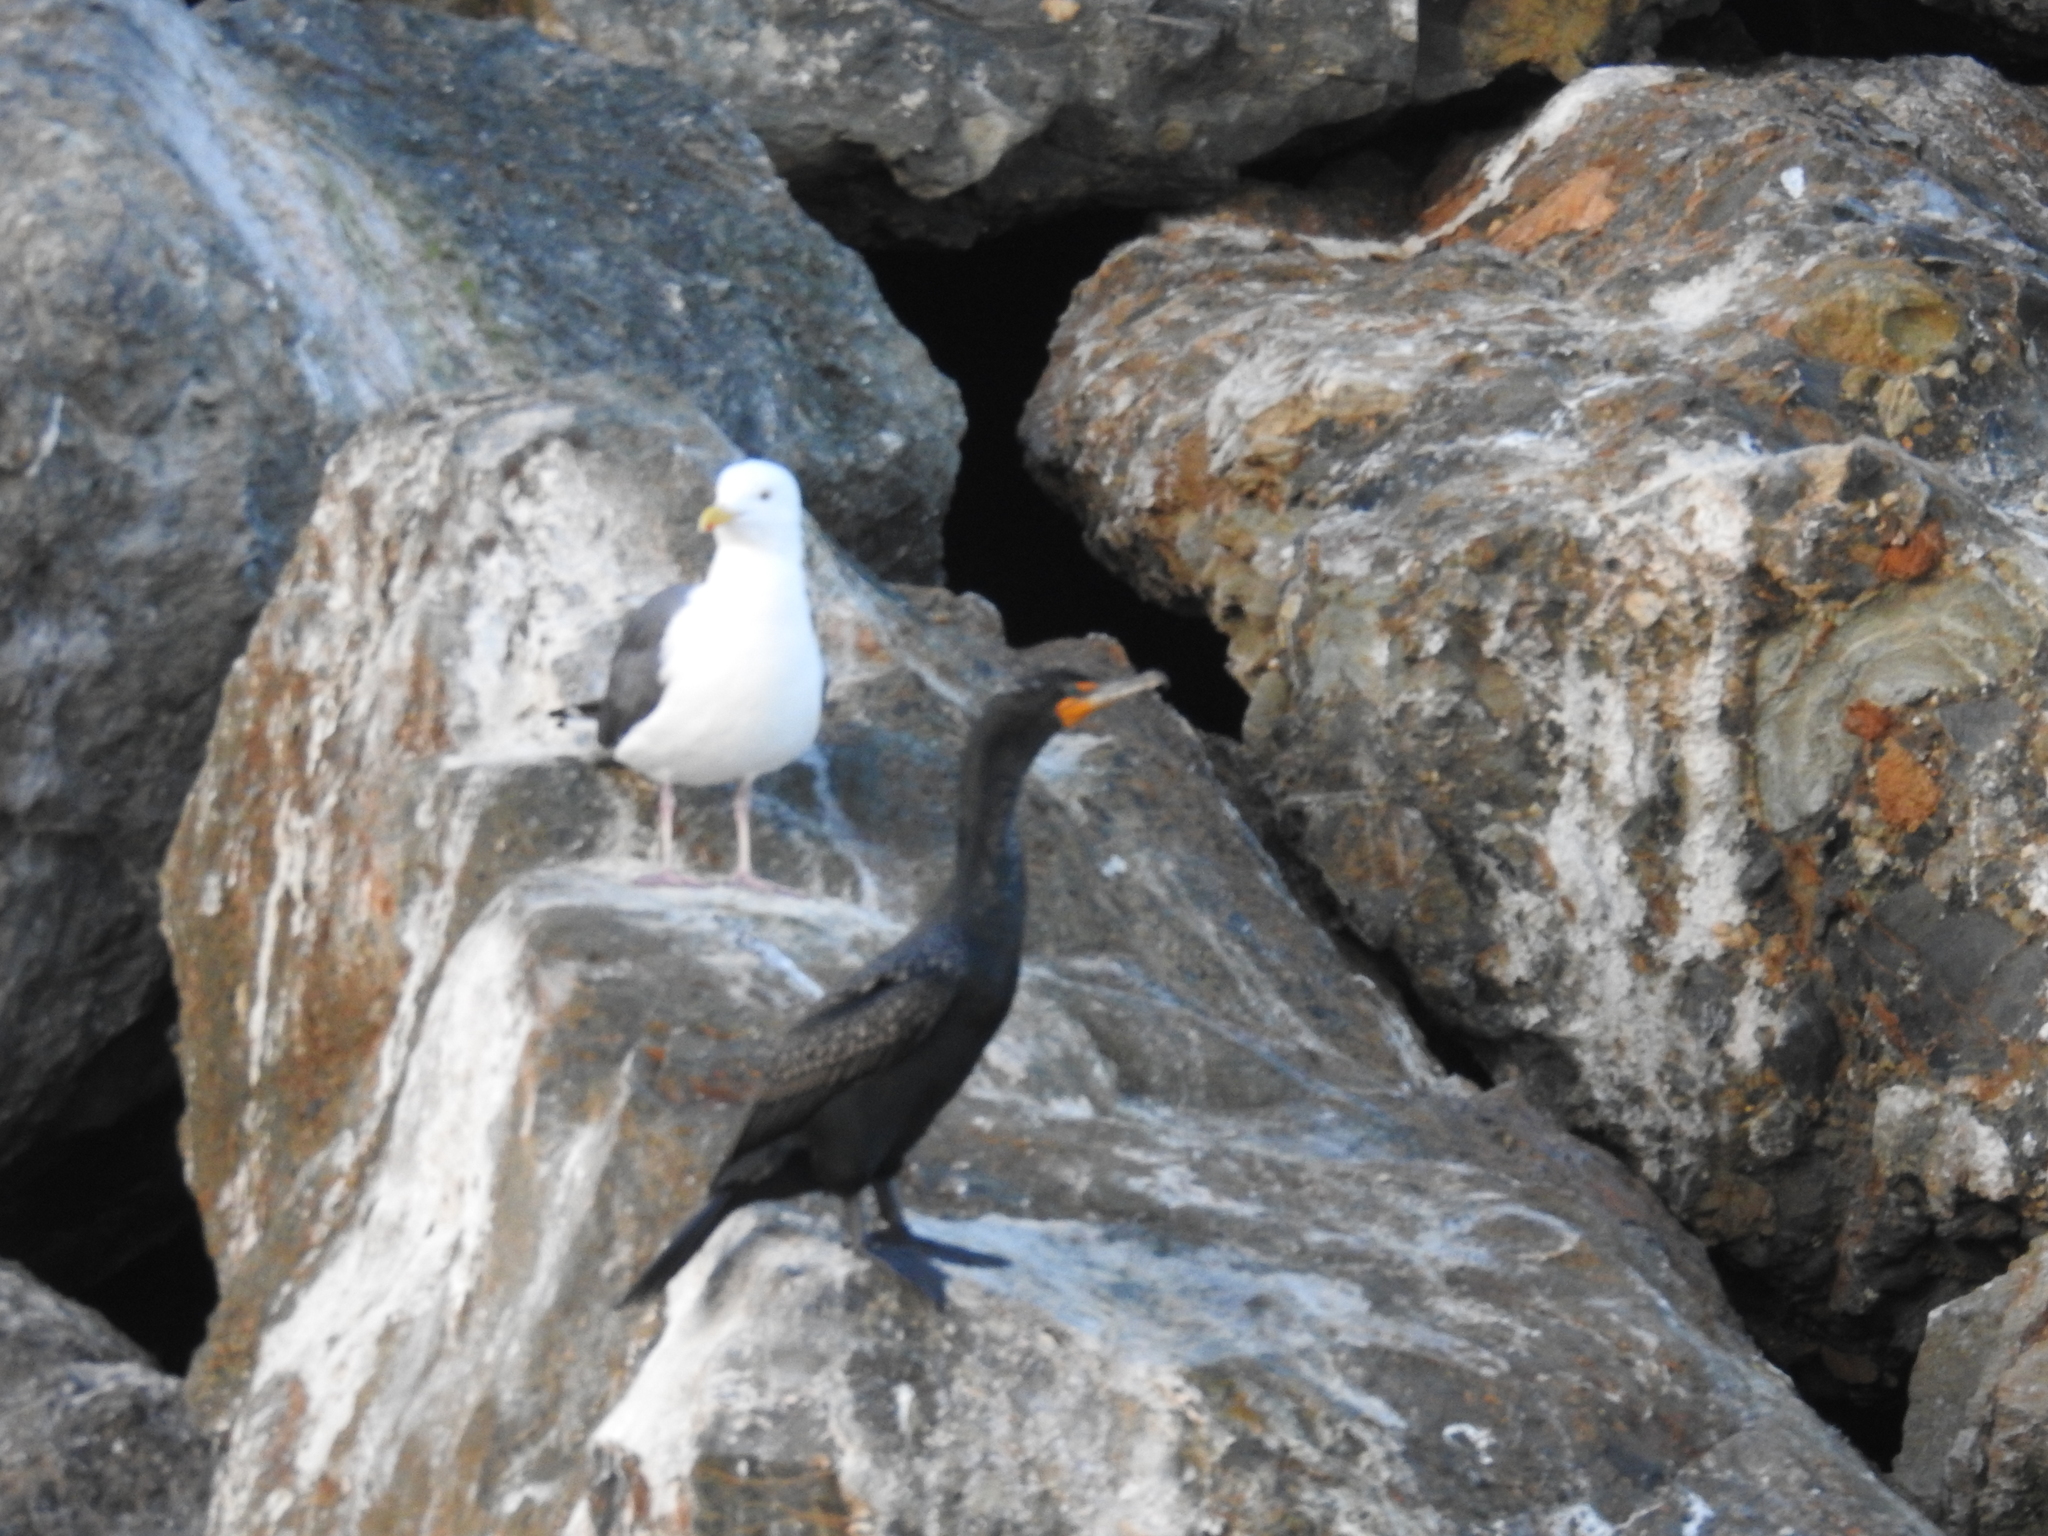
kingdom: Animalia
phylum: Chordata
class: Aves
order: Suliformes
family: Phalacrocoracidae
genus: Phalacrocorax
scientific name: Phalacrocorax auritus
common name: Double-crested cormorant
